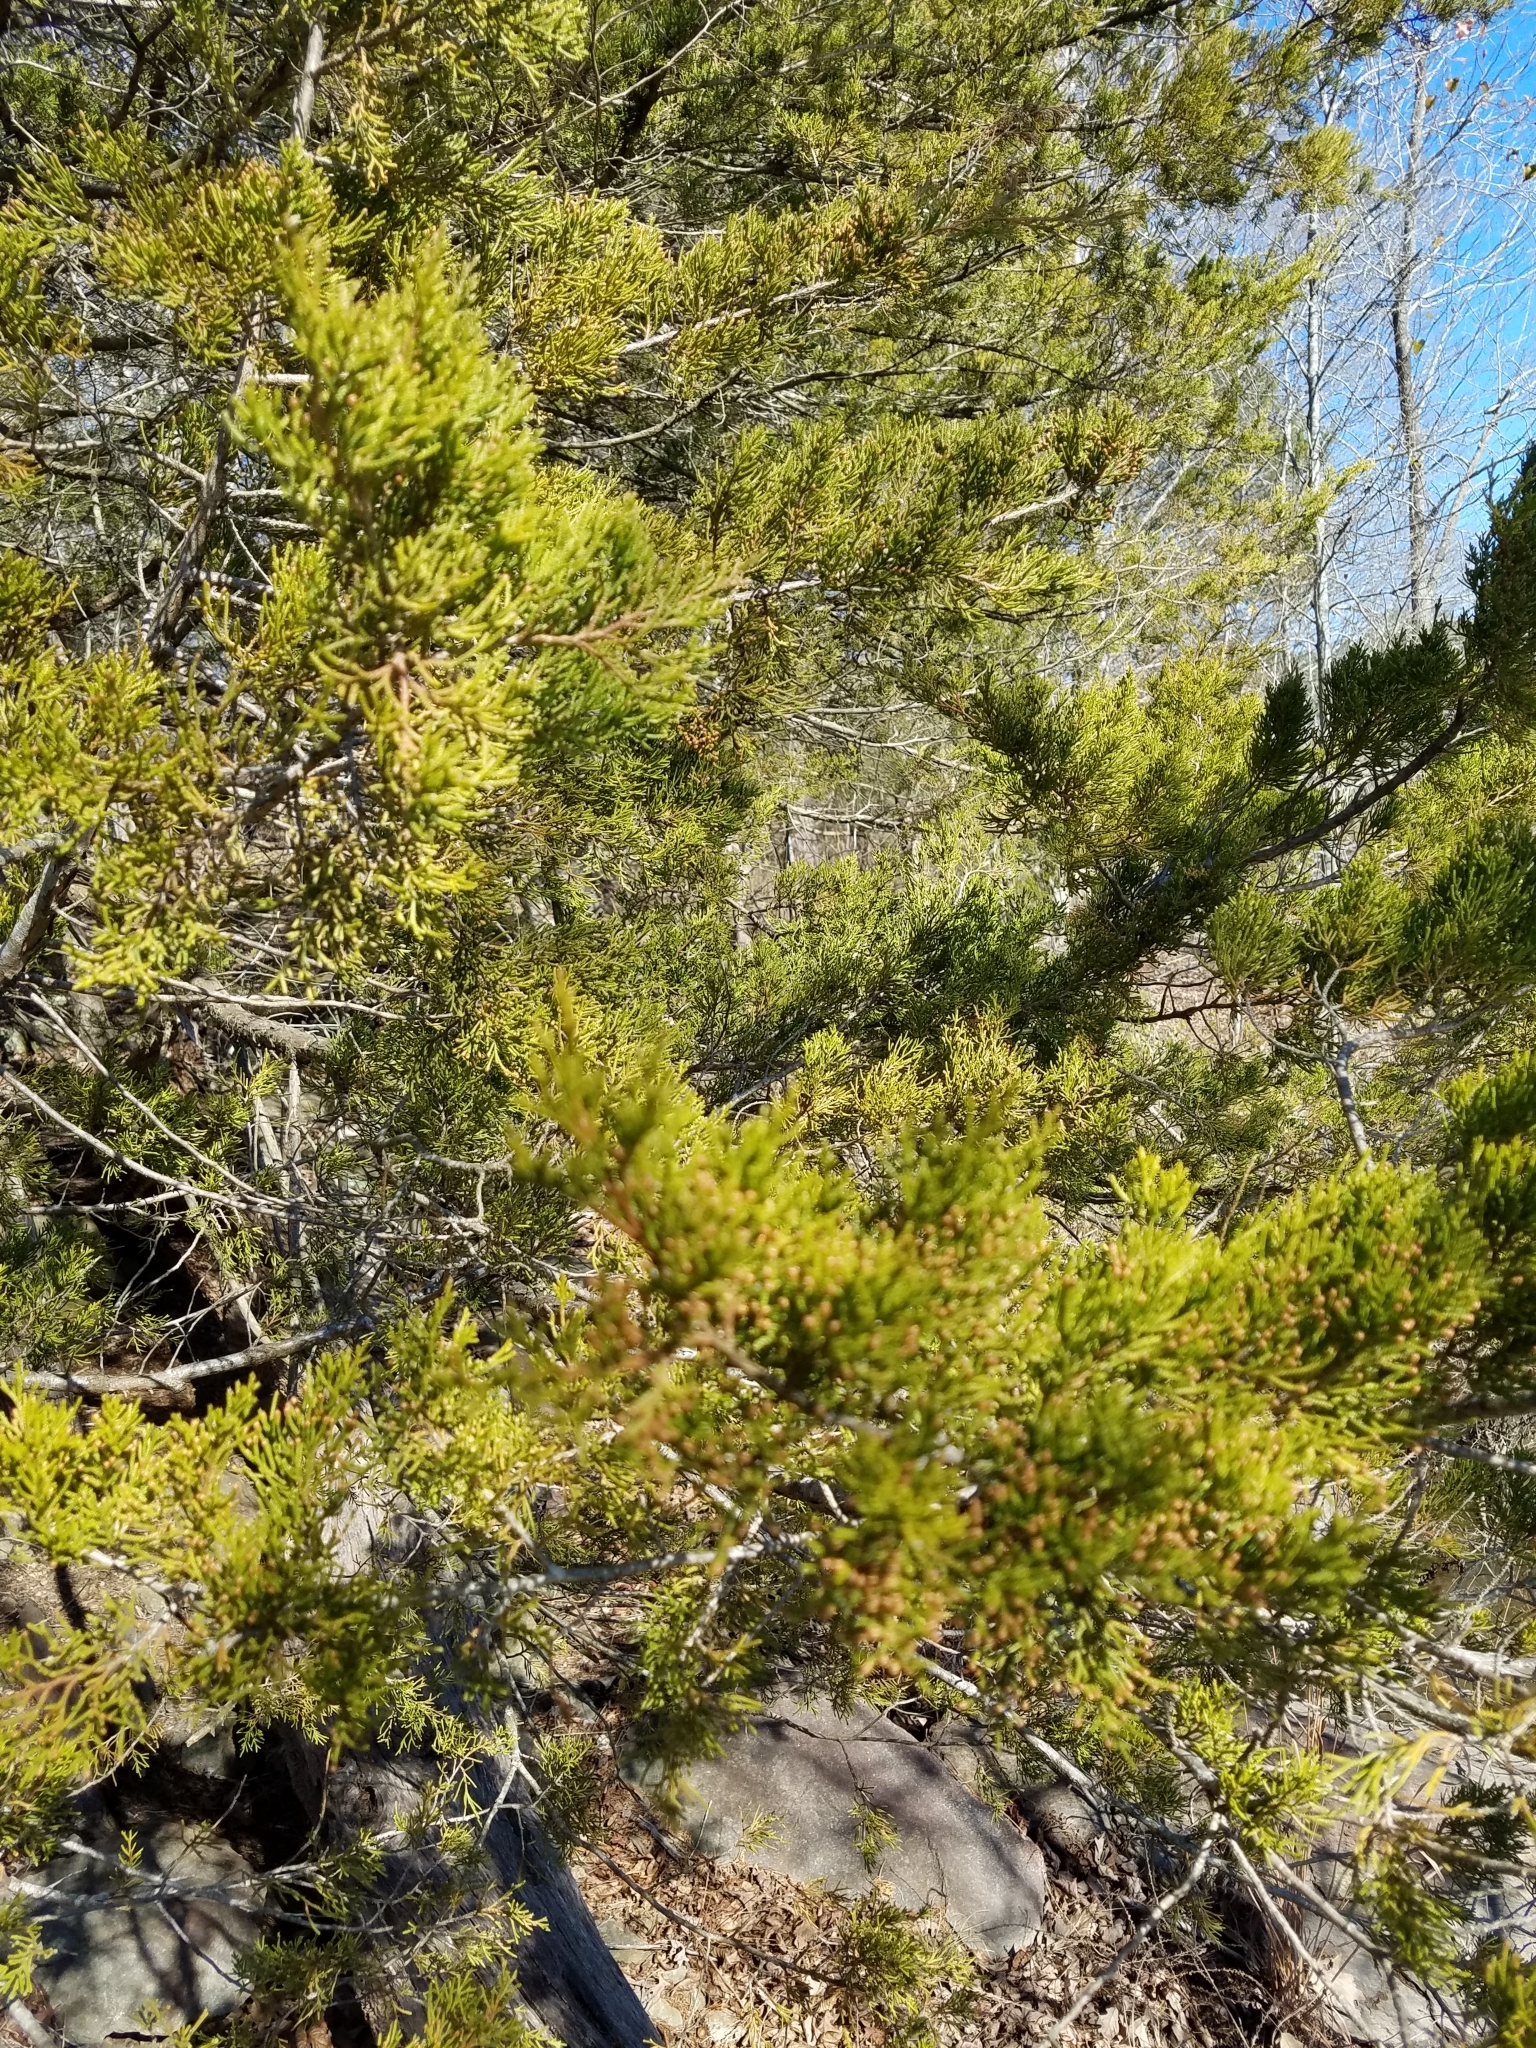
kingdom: Plantae
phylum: Tracheophyta
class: Pinopsida
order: Pinales
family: Cupressaceae
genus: Juniperus
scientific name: Juniperus virginiana
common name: Red juniper
